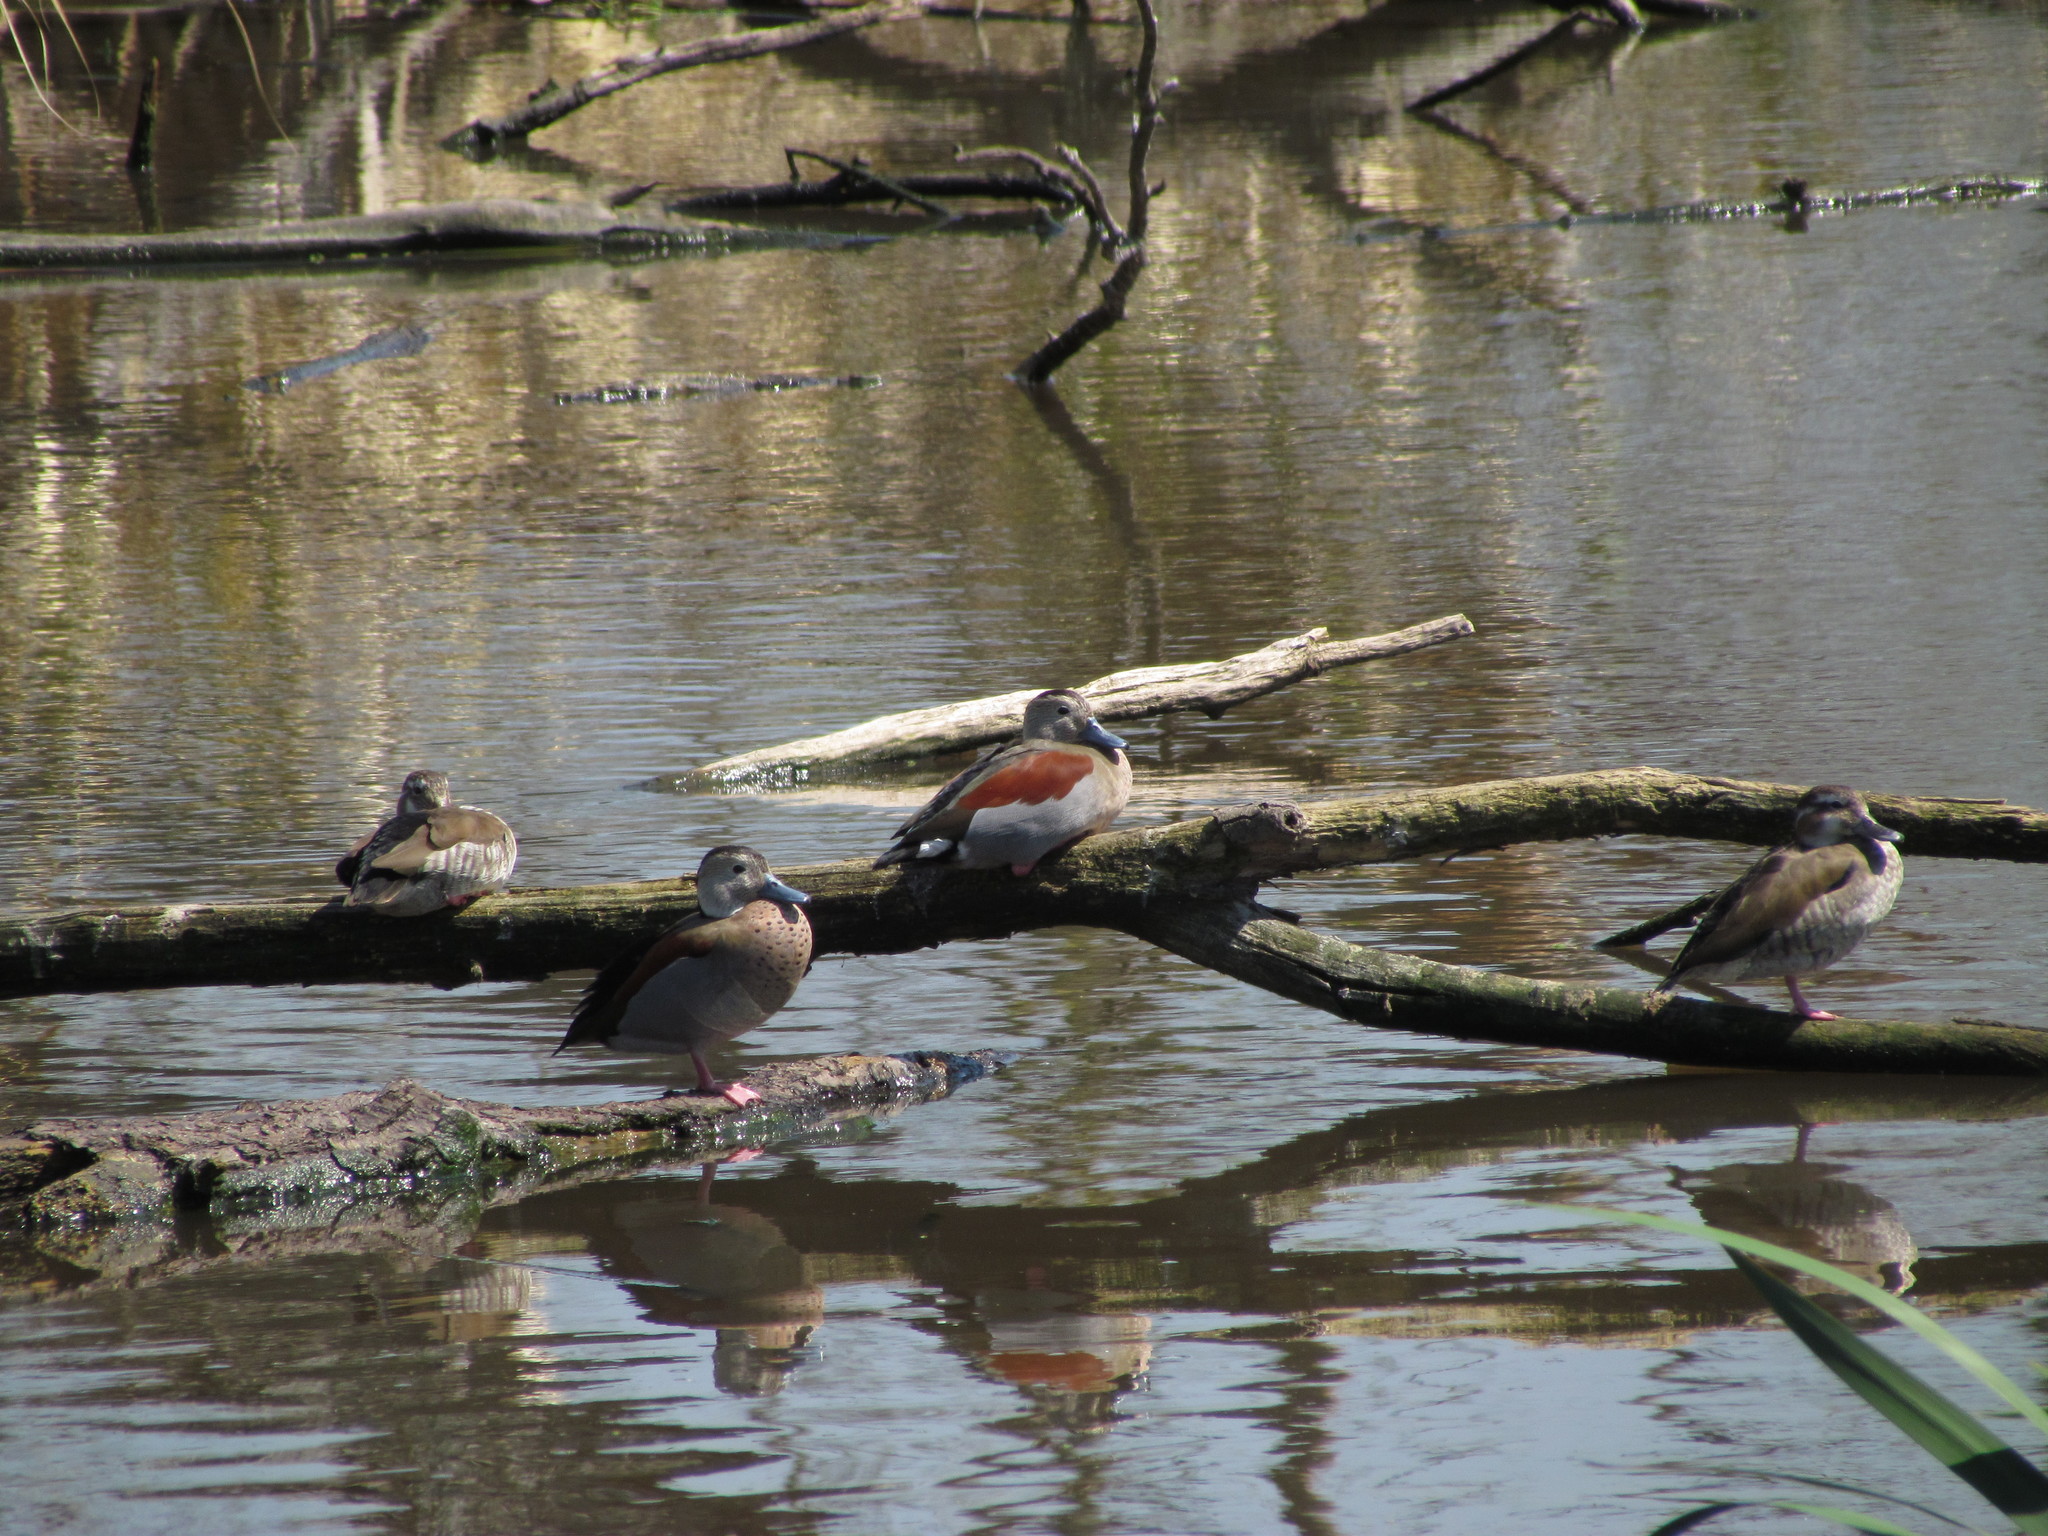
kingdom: Animalia
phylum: Chordata
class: Aves
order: Anseriformes
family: Anatidae
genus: Callonetta
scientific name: Callonetta leucophrys
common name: Ringed teal
